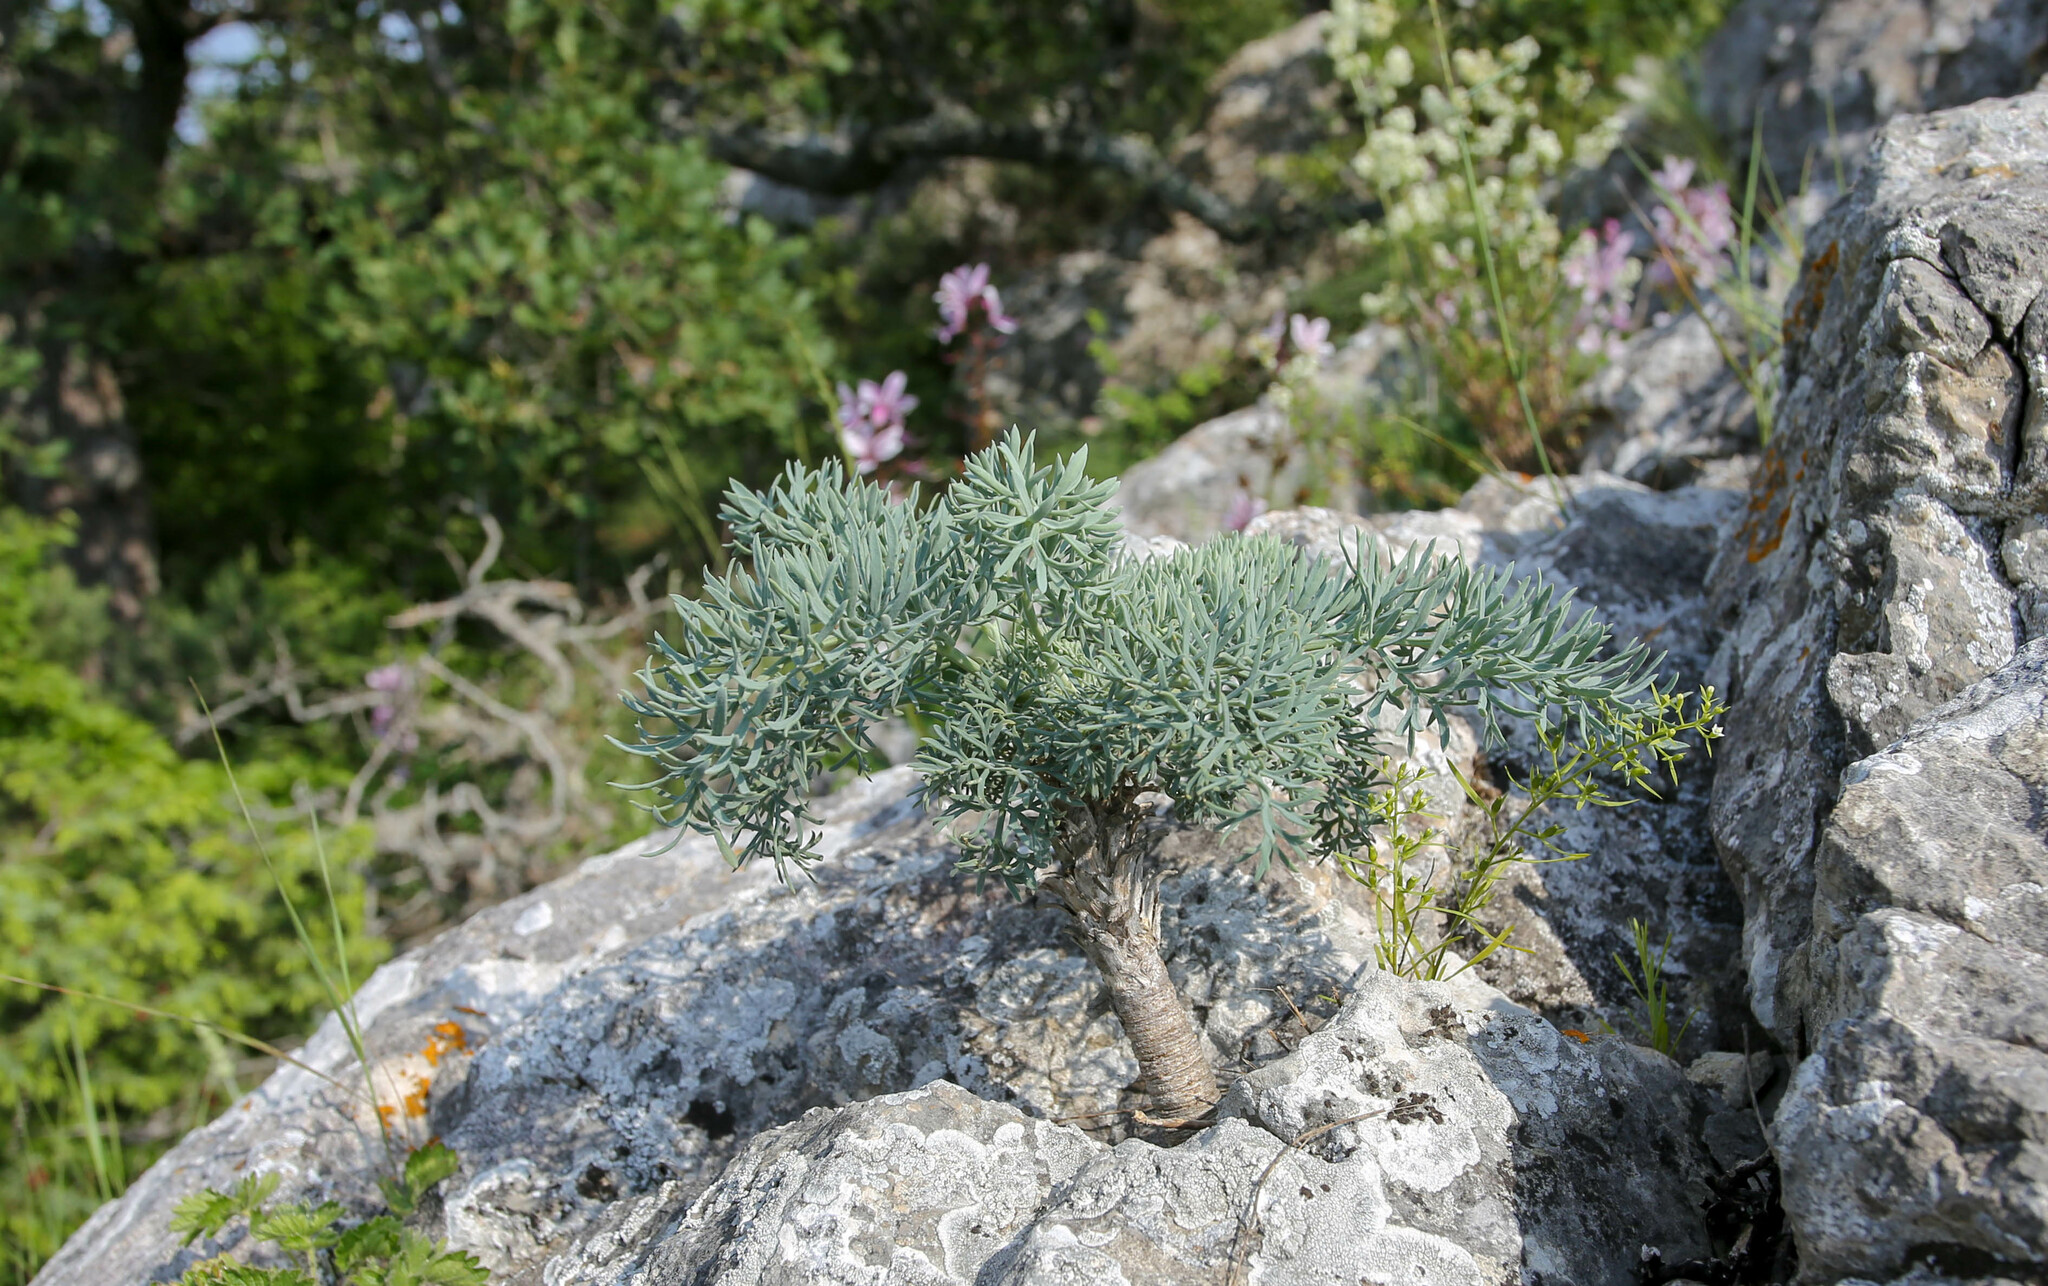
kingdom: Plantae
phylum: Tracheophyta
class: Magnoliopsida
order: Apiales
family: Apiaceae
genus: Seseli
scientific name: Seseli gummiferum
